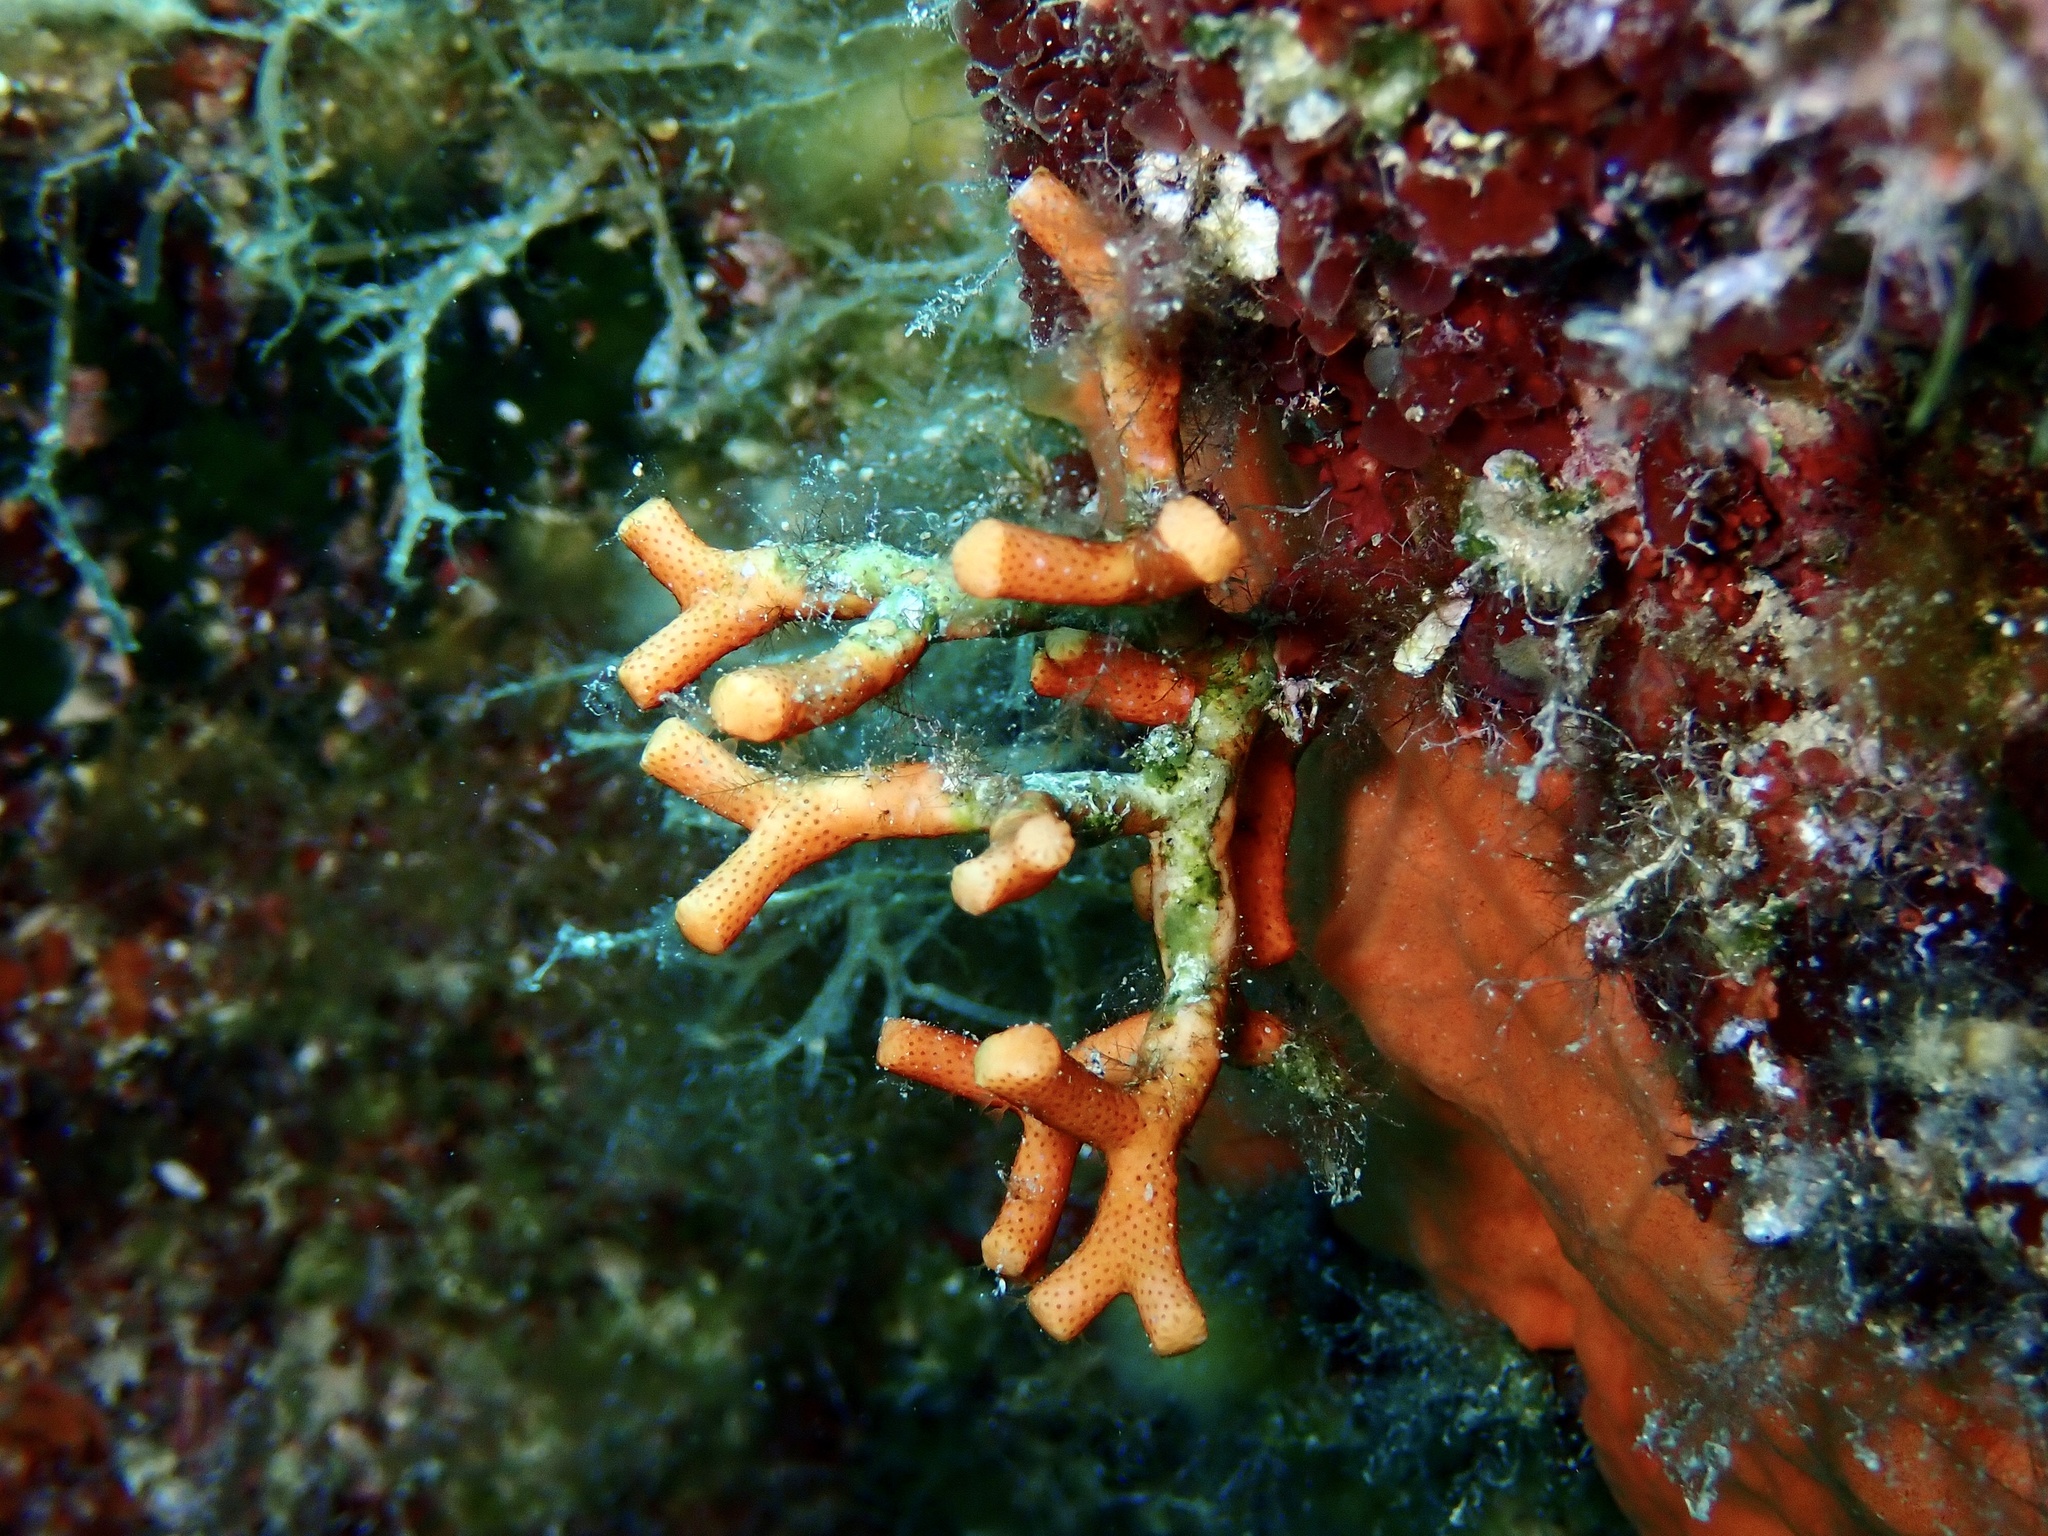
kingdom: Animalia
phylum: Bryozoa
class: Gymnolaemata
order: Cheilostomatida
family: Myriaporidae
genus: Myriapora
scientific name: Myriapora truncata
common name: False coral
